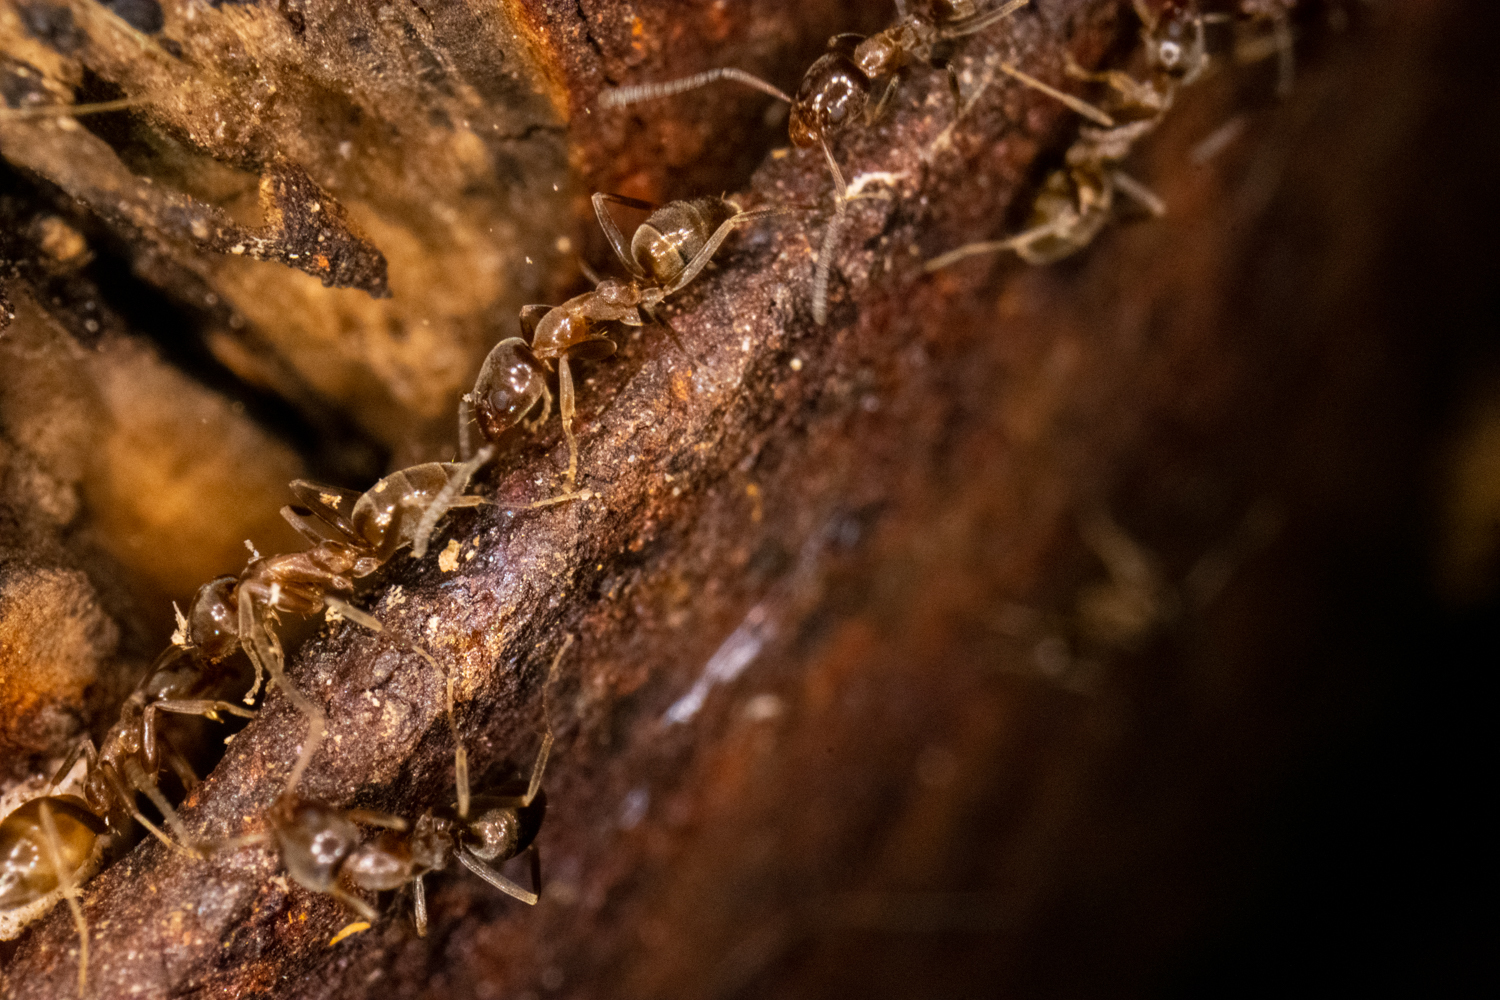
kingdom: Animalia
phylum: Arthropoda
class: Insecta
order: Hymenoptera
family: Formicidae
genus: Linepithema
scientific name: Linepithema humile
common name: Argentine ant
